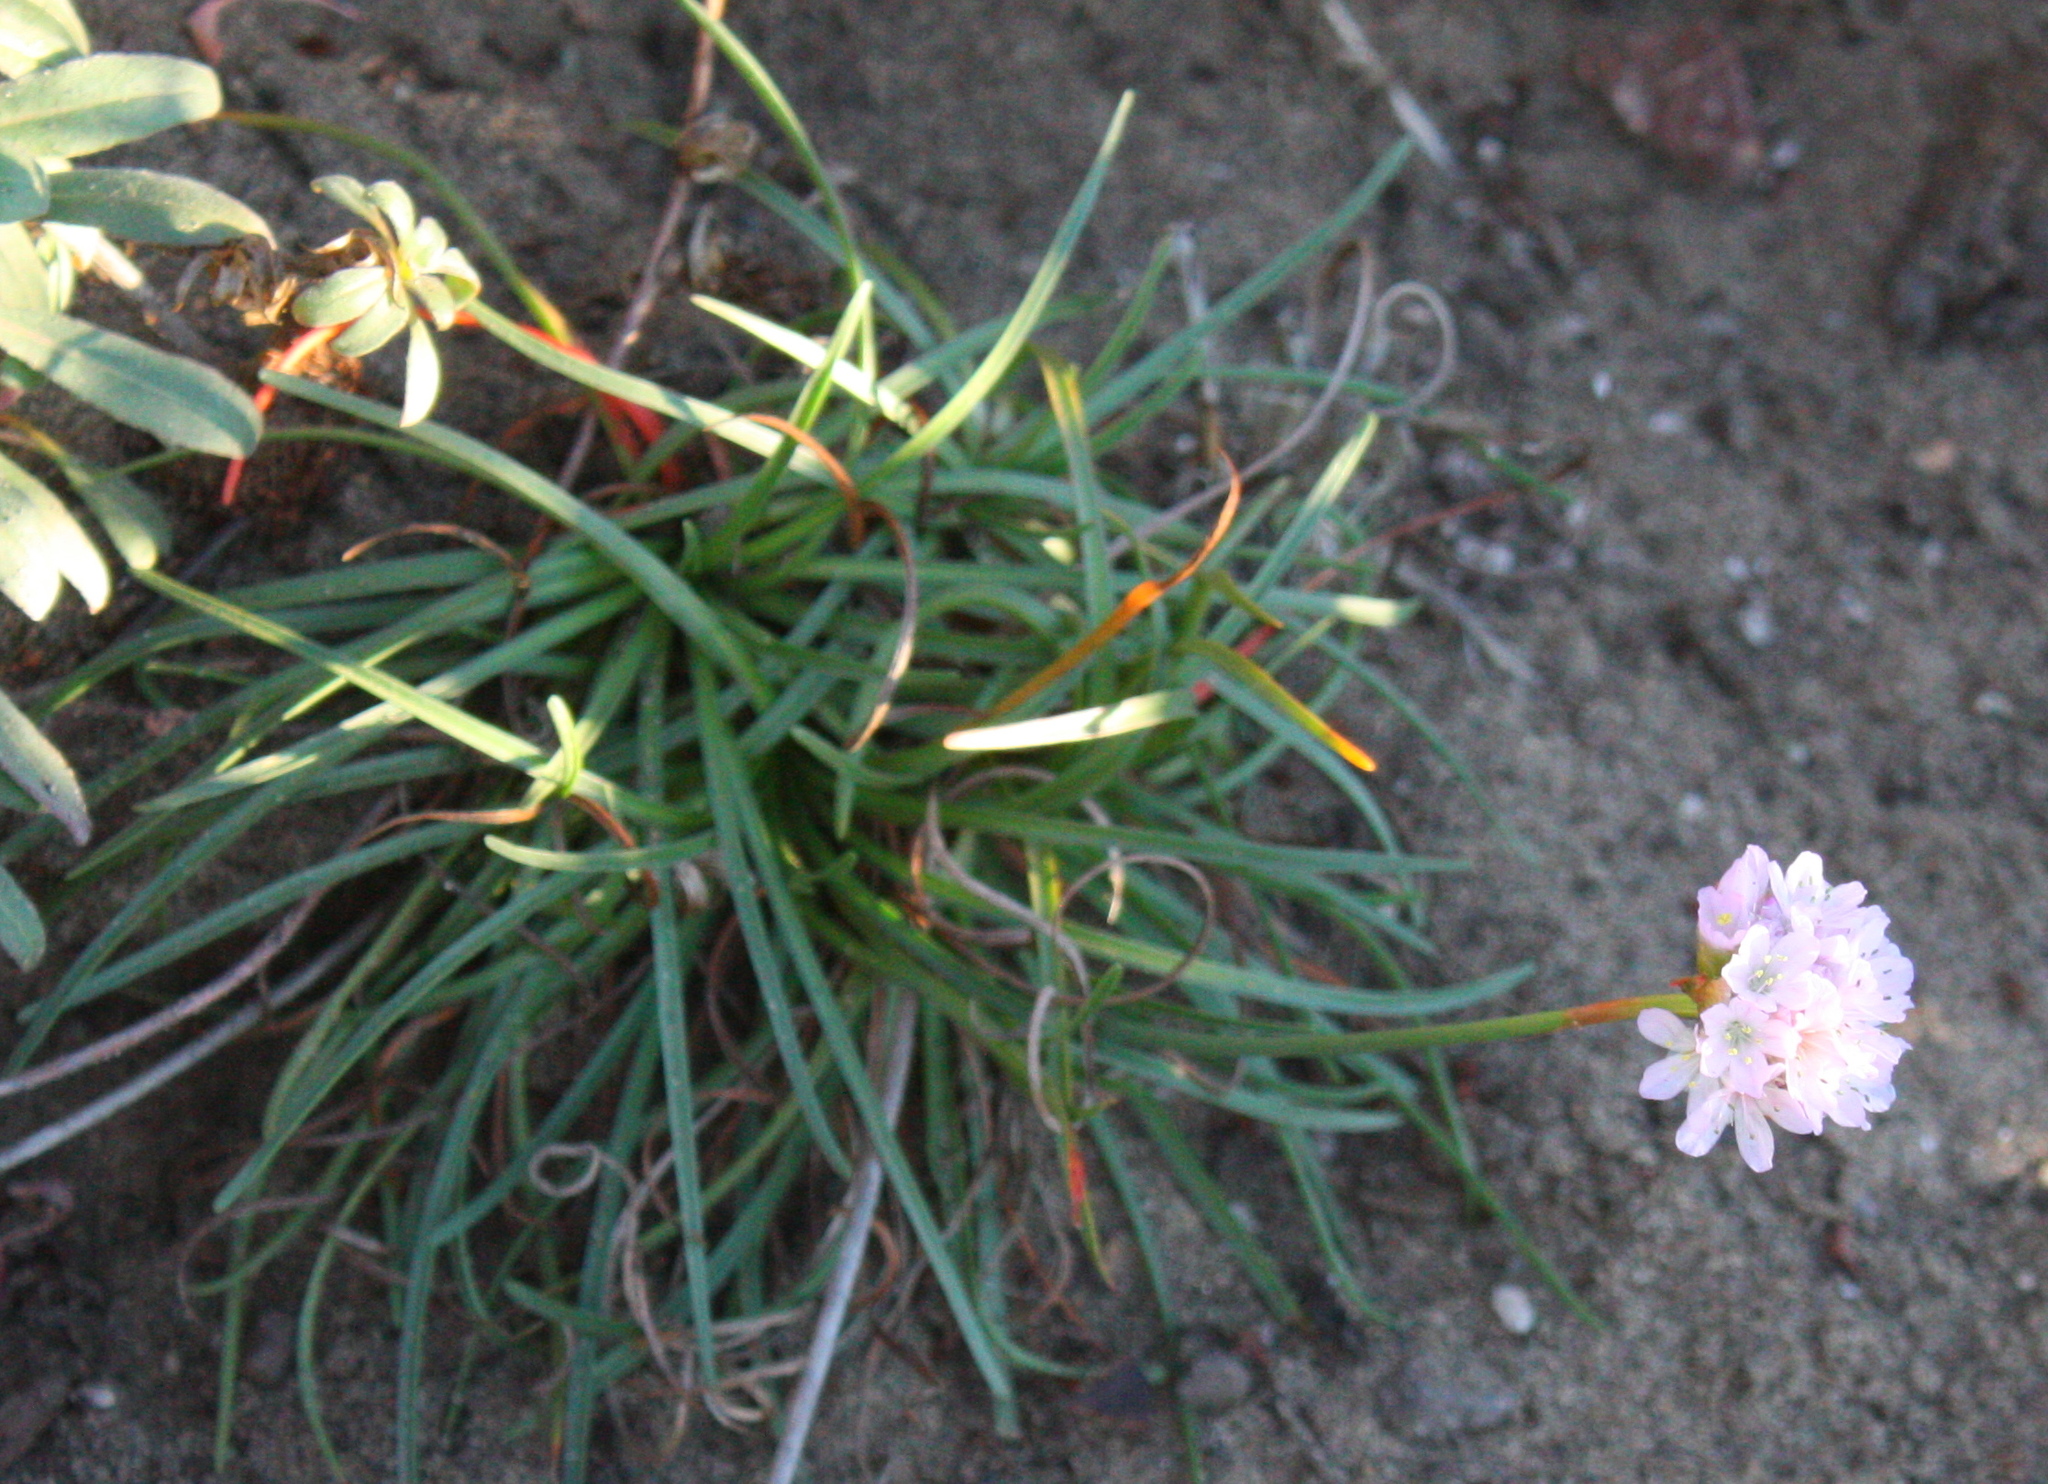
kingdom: Plantae
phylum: Tracheophyta
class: Magnoliopsida
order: Caryophyllales
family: Plumbaginaceae
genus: Armeria
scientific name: Armeria maritima
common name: Thrift
